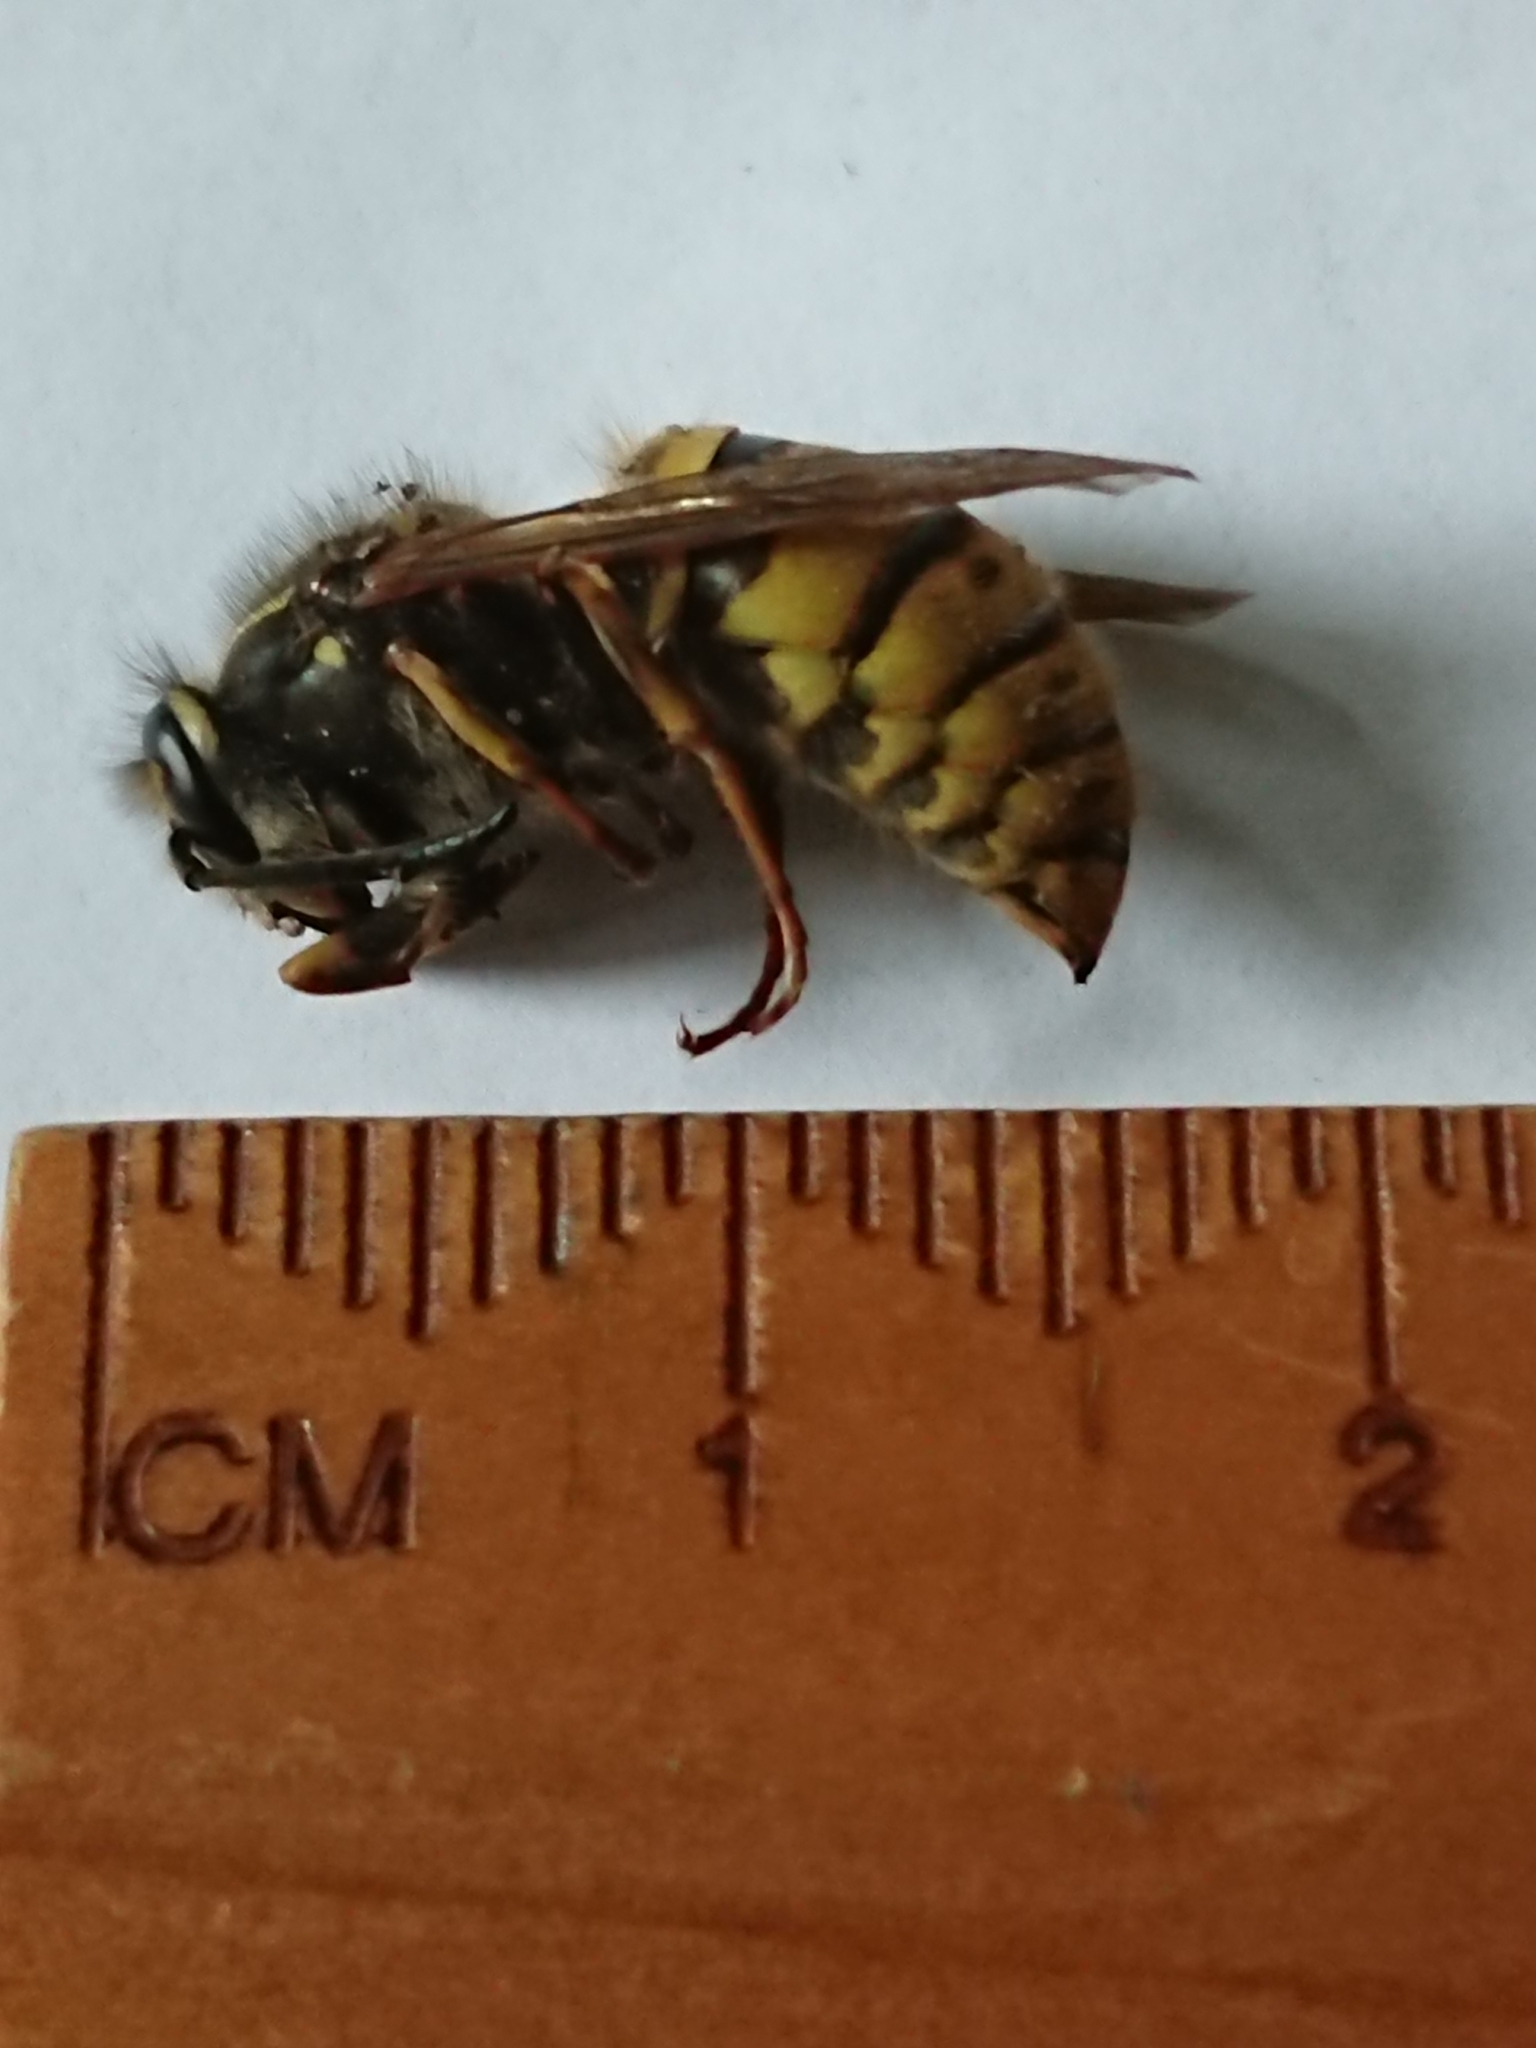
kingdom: Animalia
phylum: Arthropoda
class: Insecta
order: Hymenoptera
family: Vespidae
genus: Vespula
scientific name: Vespula vulgaris
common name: Common wasp
